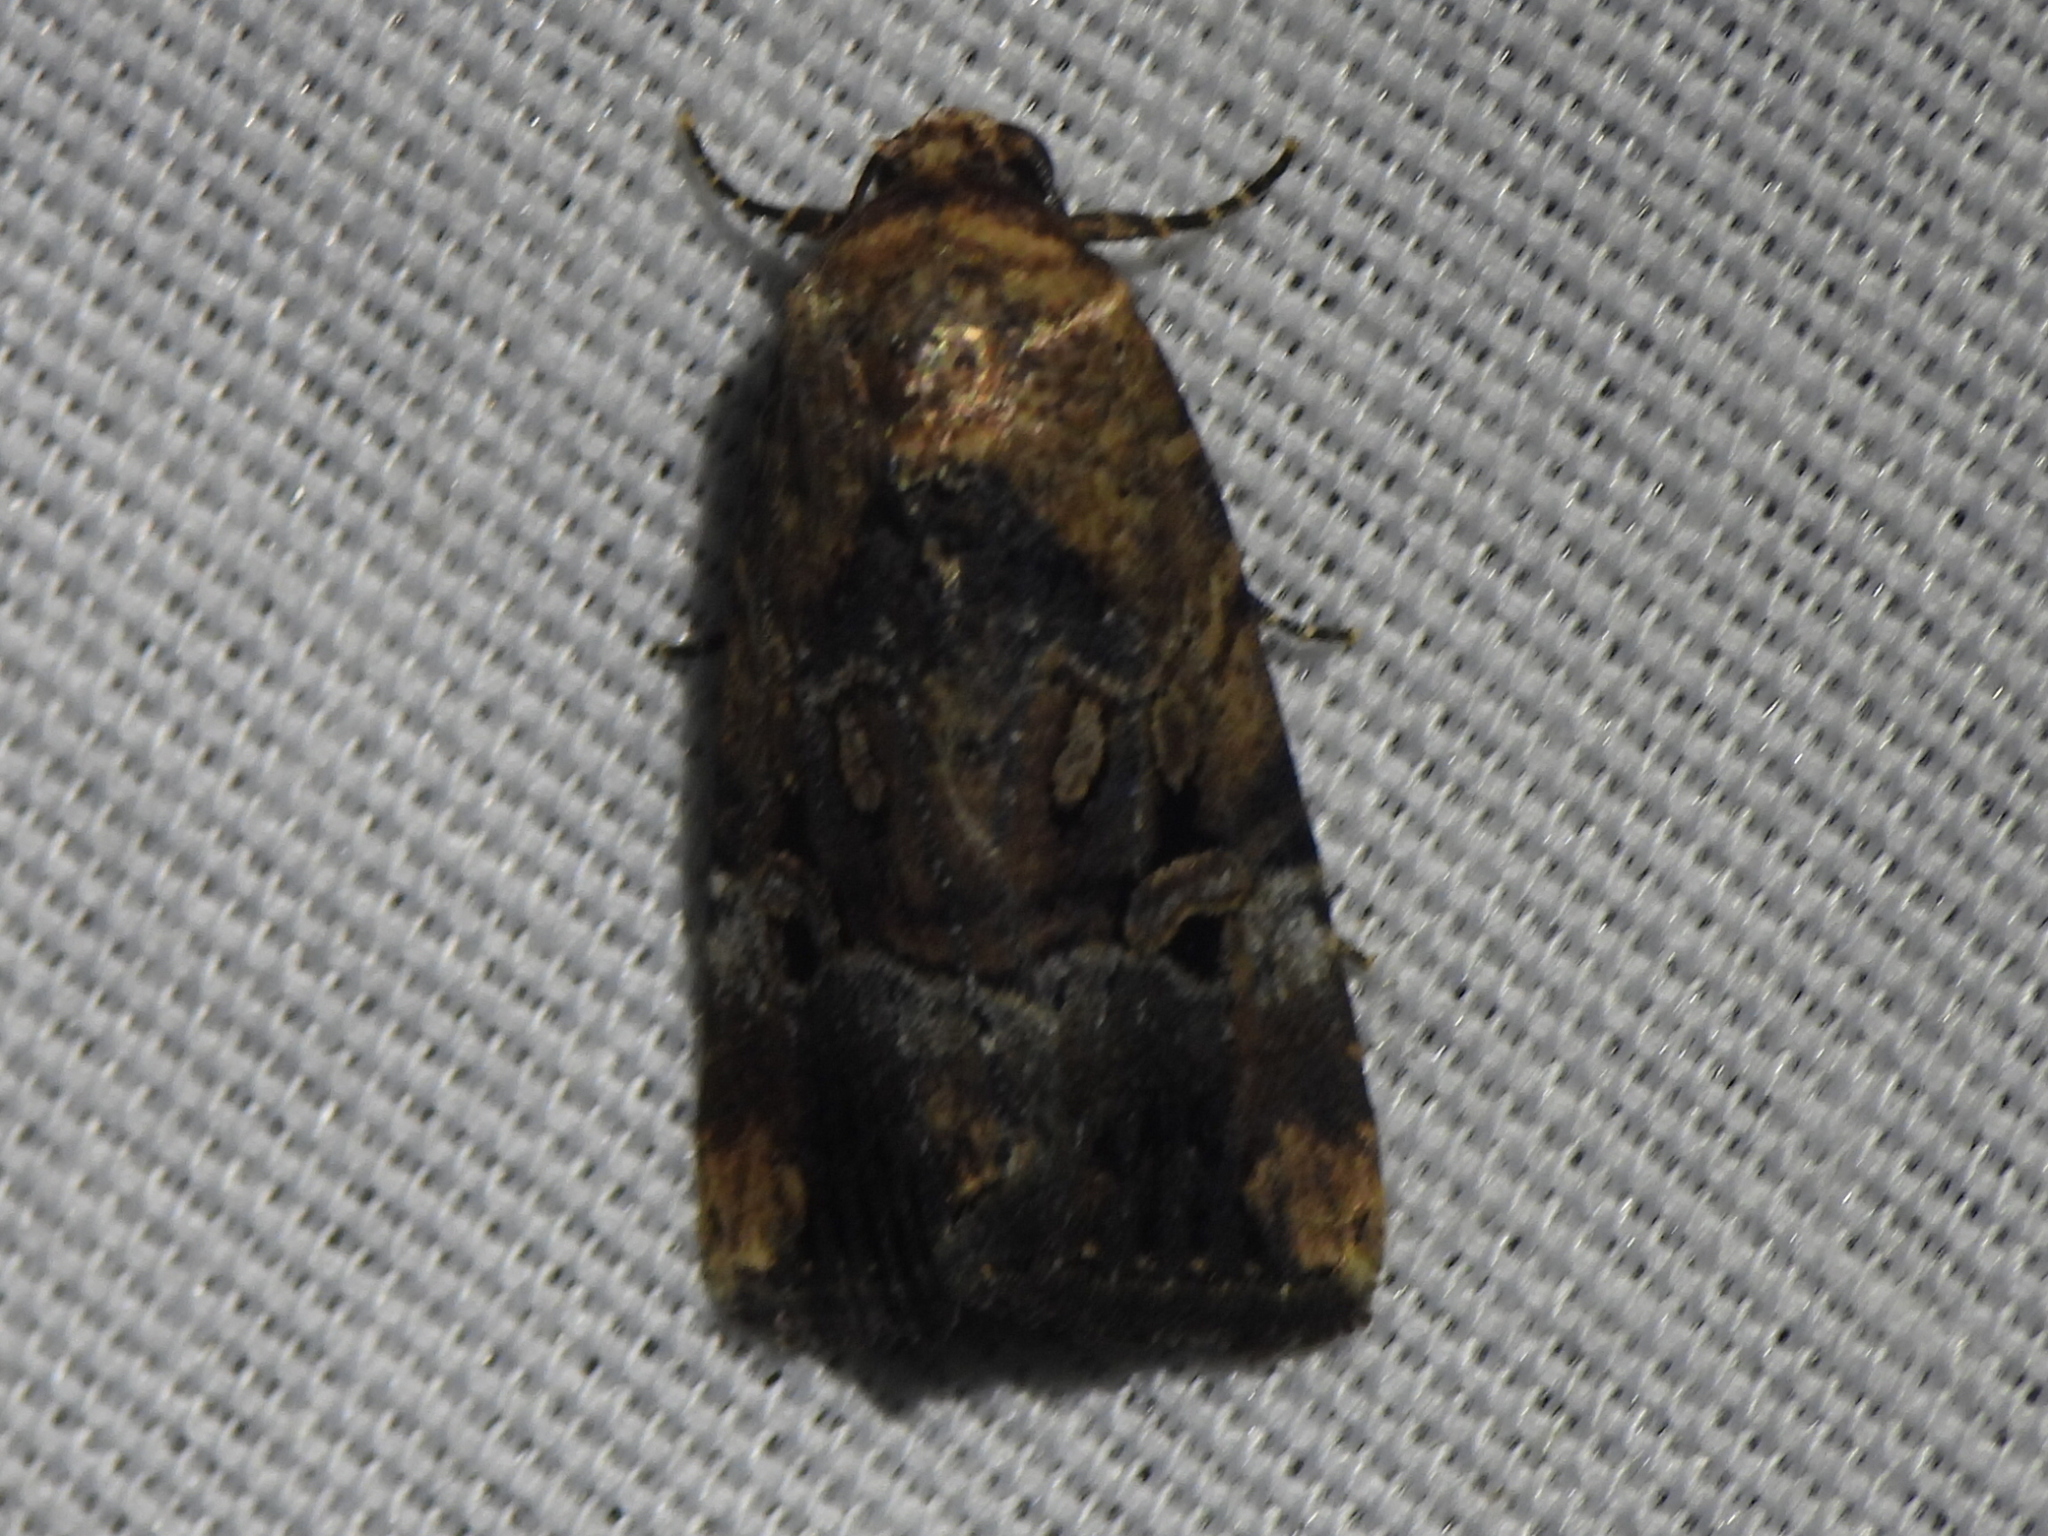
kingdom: Animalia
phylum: Arthropoda
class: Insecta
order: Lepidoptera
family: Noctuidae
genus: Elaphria
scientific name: Elaphria chalcedonia
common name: Chalcedony midget
